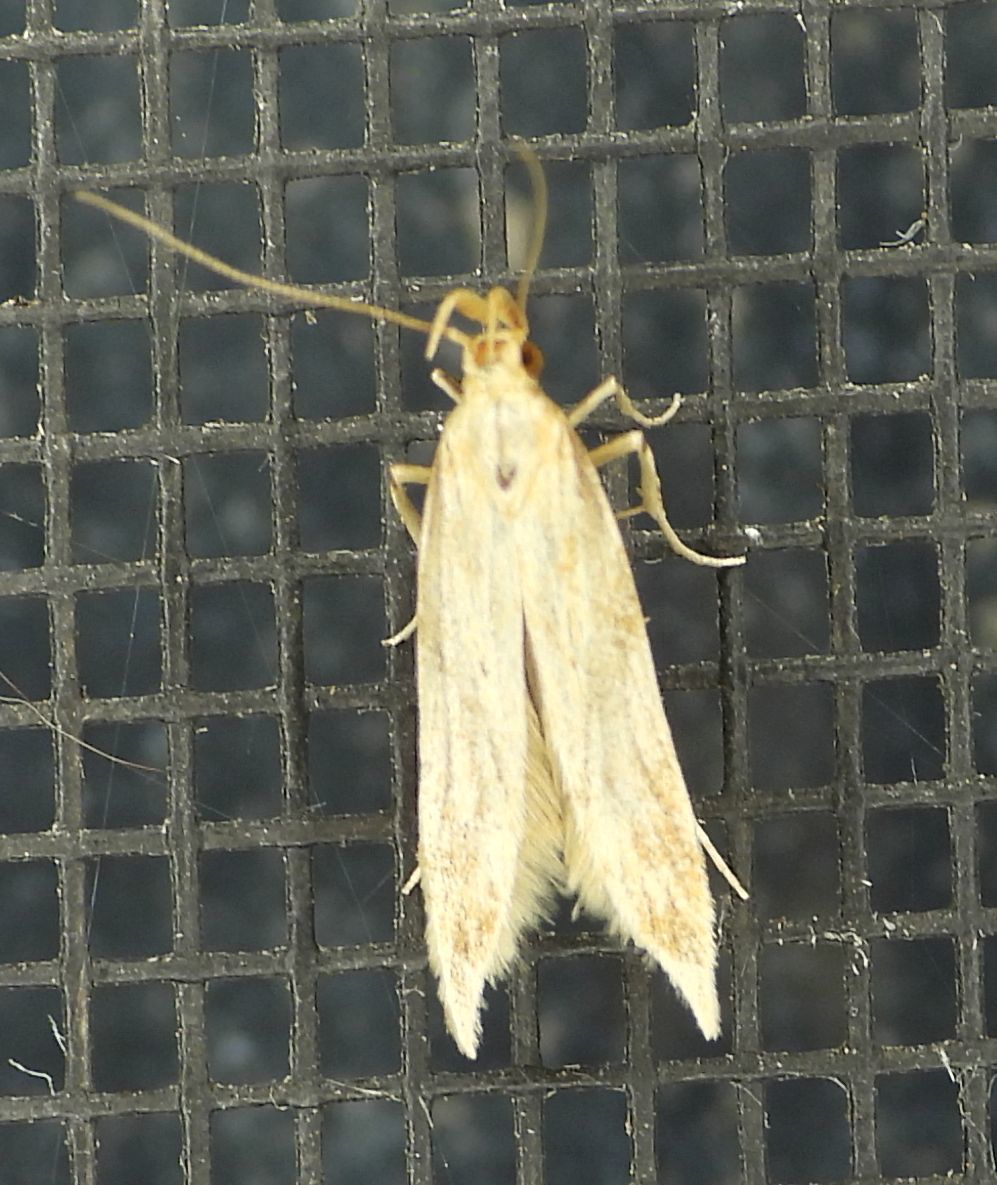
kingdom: Animalia
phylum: Arthropoda
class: Insecta
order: Lepidoptera
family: Gelechiidae
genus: Metzneria
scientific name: Metzneria lappella
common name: Burdock neb
